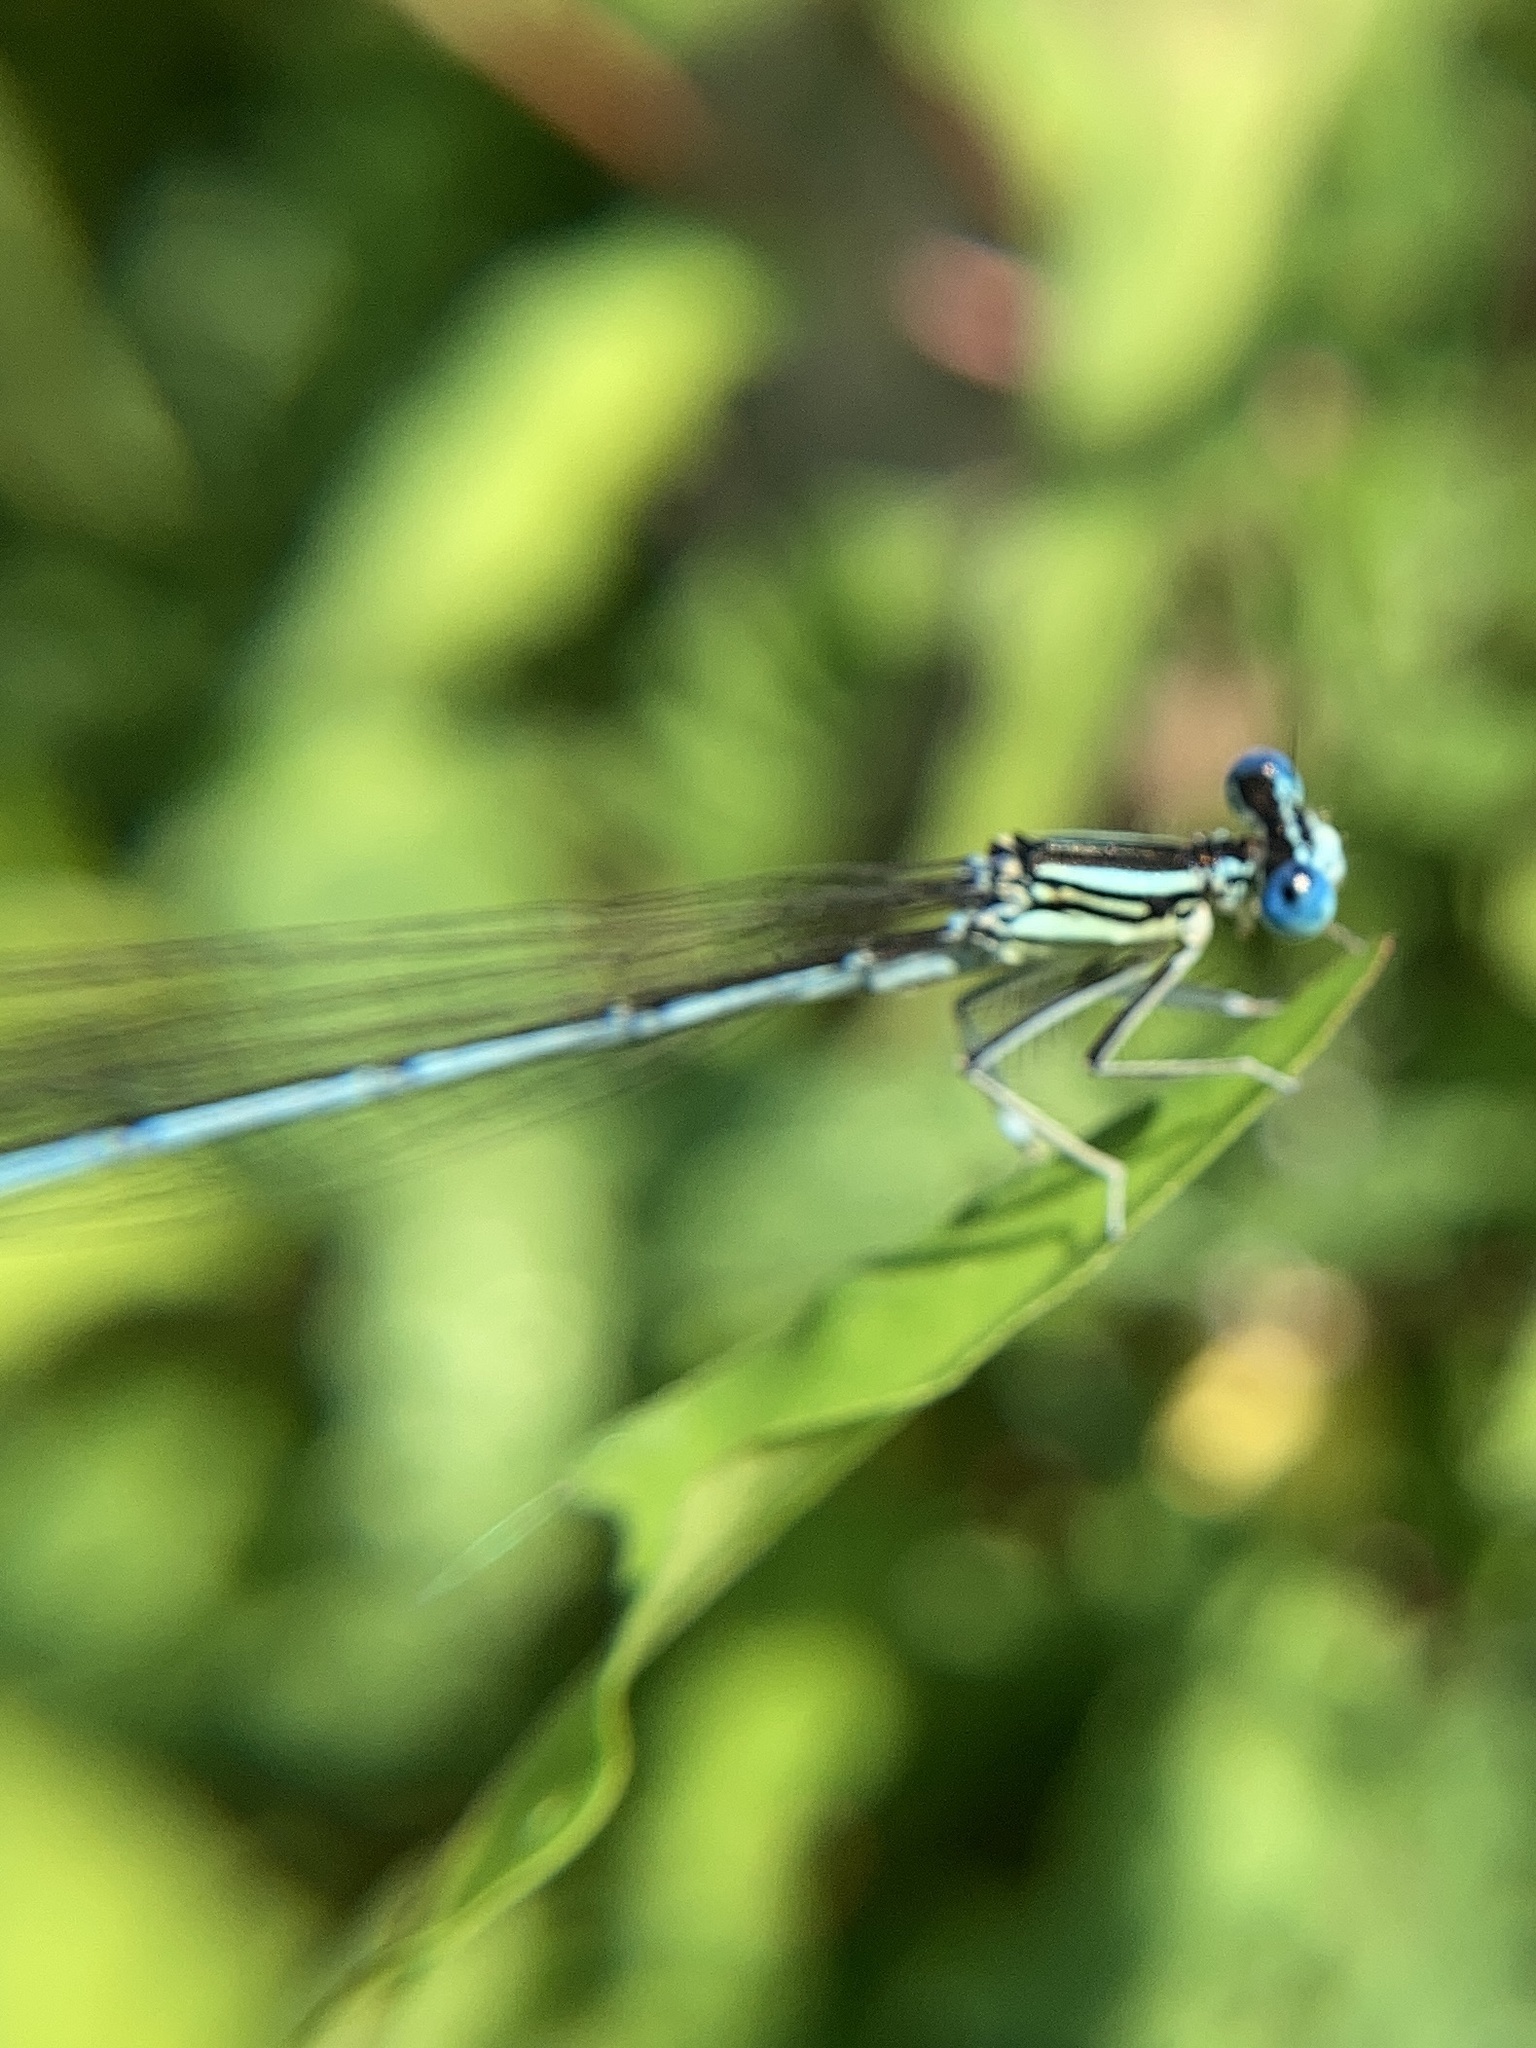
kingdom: Animalia
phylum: Arthropoda
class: Insecta
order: Odonata
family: Platycnemididae
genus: Platycnemis
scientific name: Platycnemis pennipes
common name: White-legged damselfly
